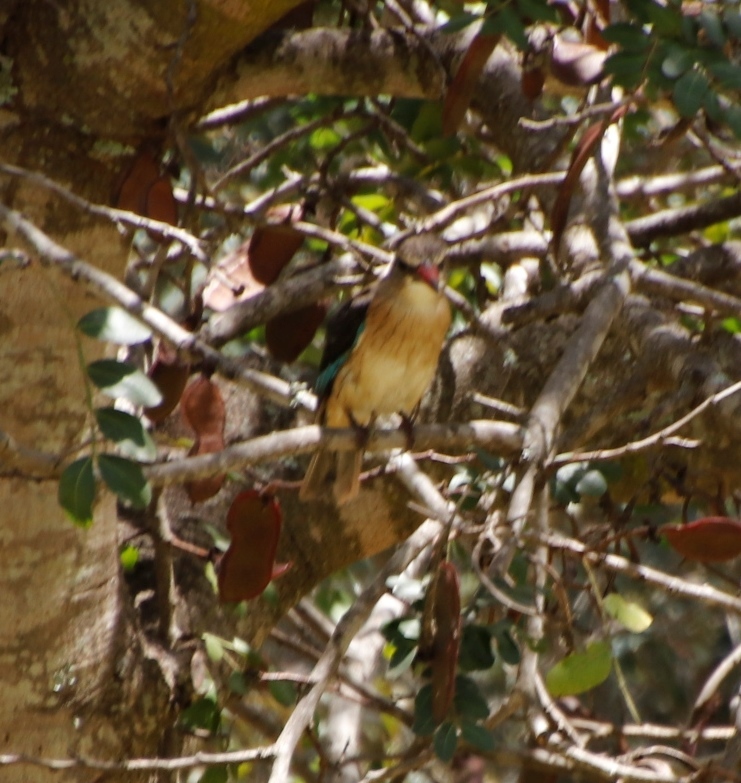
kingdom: Animalia
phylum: Chordata
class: Aves
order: Coraciiformes
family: Alcedinidae
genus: Halcyon
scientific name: Halcyon albiventris
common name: Brown-hooded kingfisher
